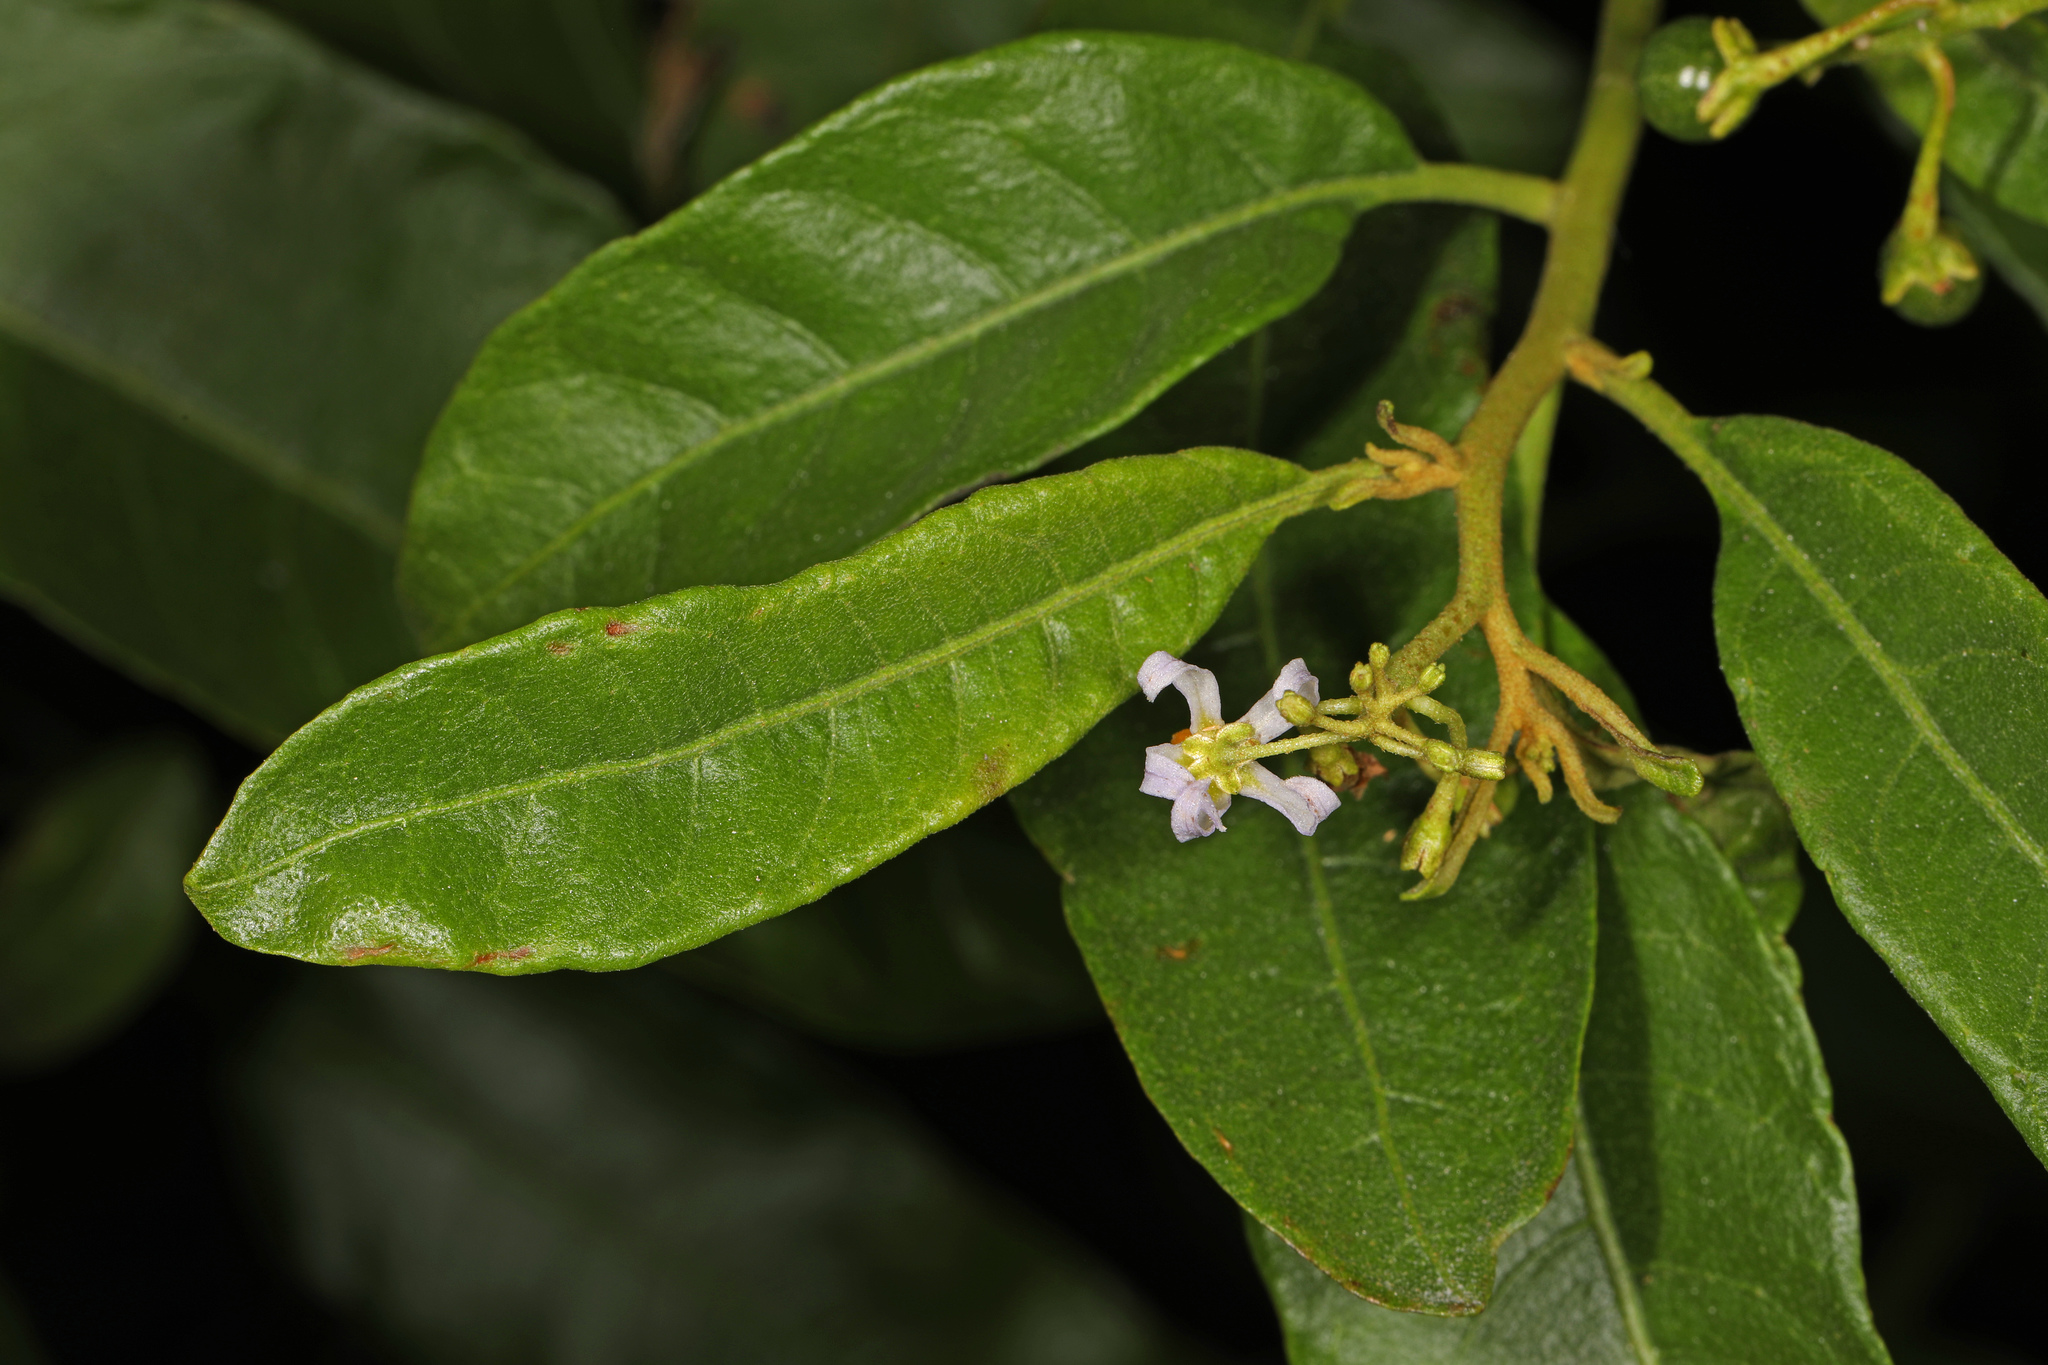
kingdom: Plantae
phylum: Tracheophyta
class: Magnoliopsida
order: Solanales
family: Solanaceae
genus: Solanum
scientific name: Solanum donianum
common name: Mullein nightshade
